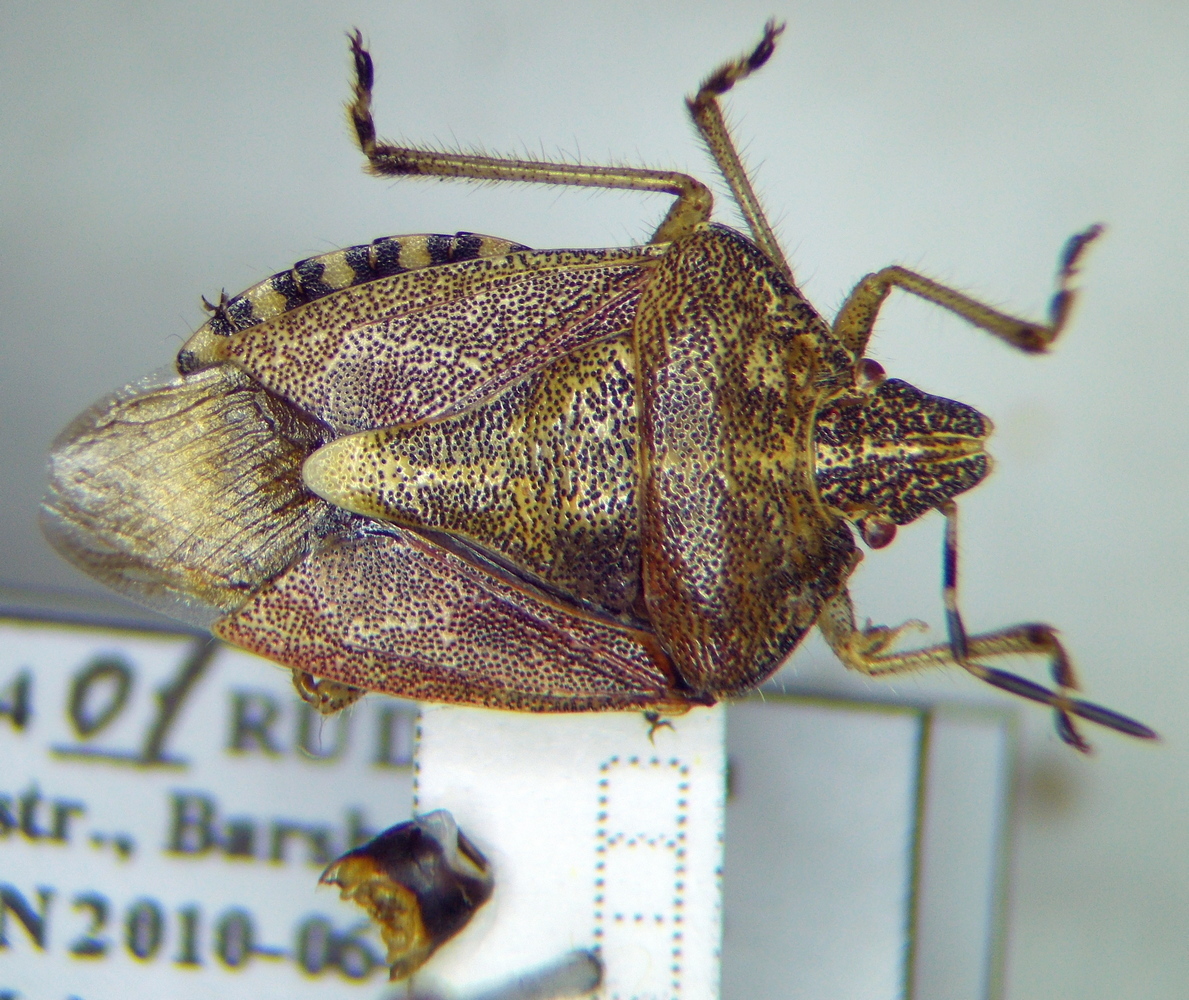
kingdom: Animalia
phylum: Arthropoda
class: Insecta
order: Hemiptera
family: Pentatomidae
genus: Dolycoris
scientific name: Dolycoris baccarum
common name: Sloe bug
